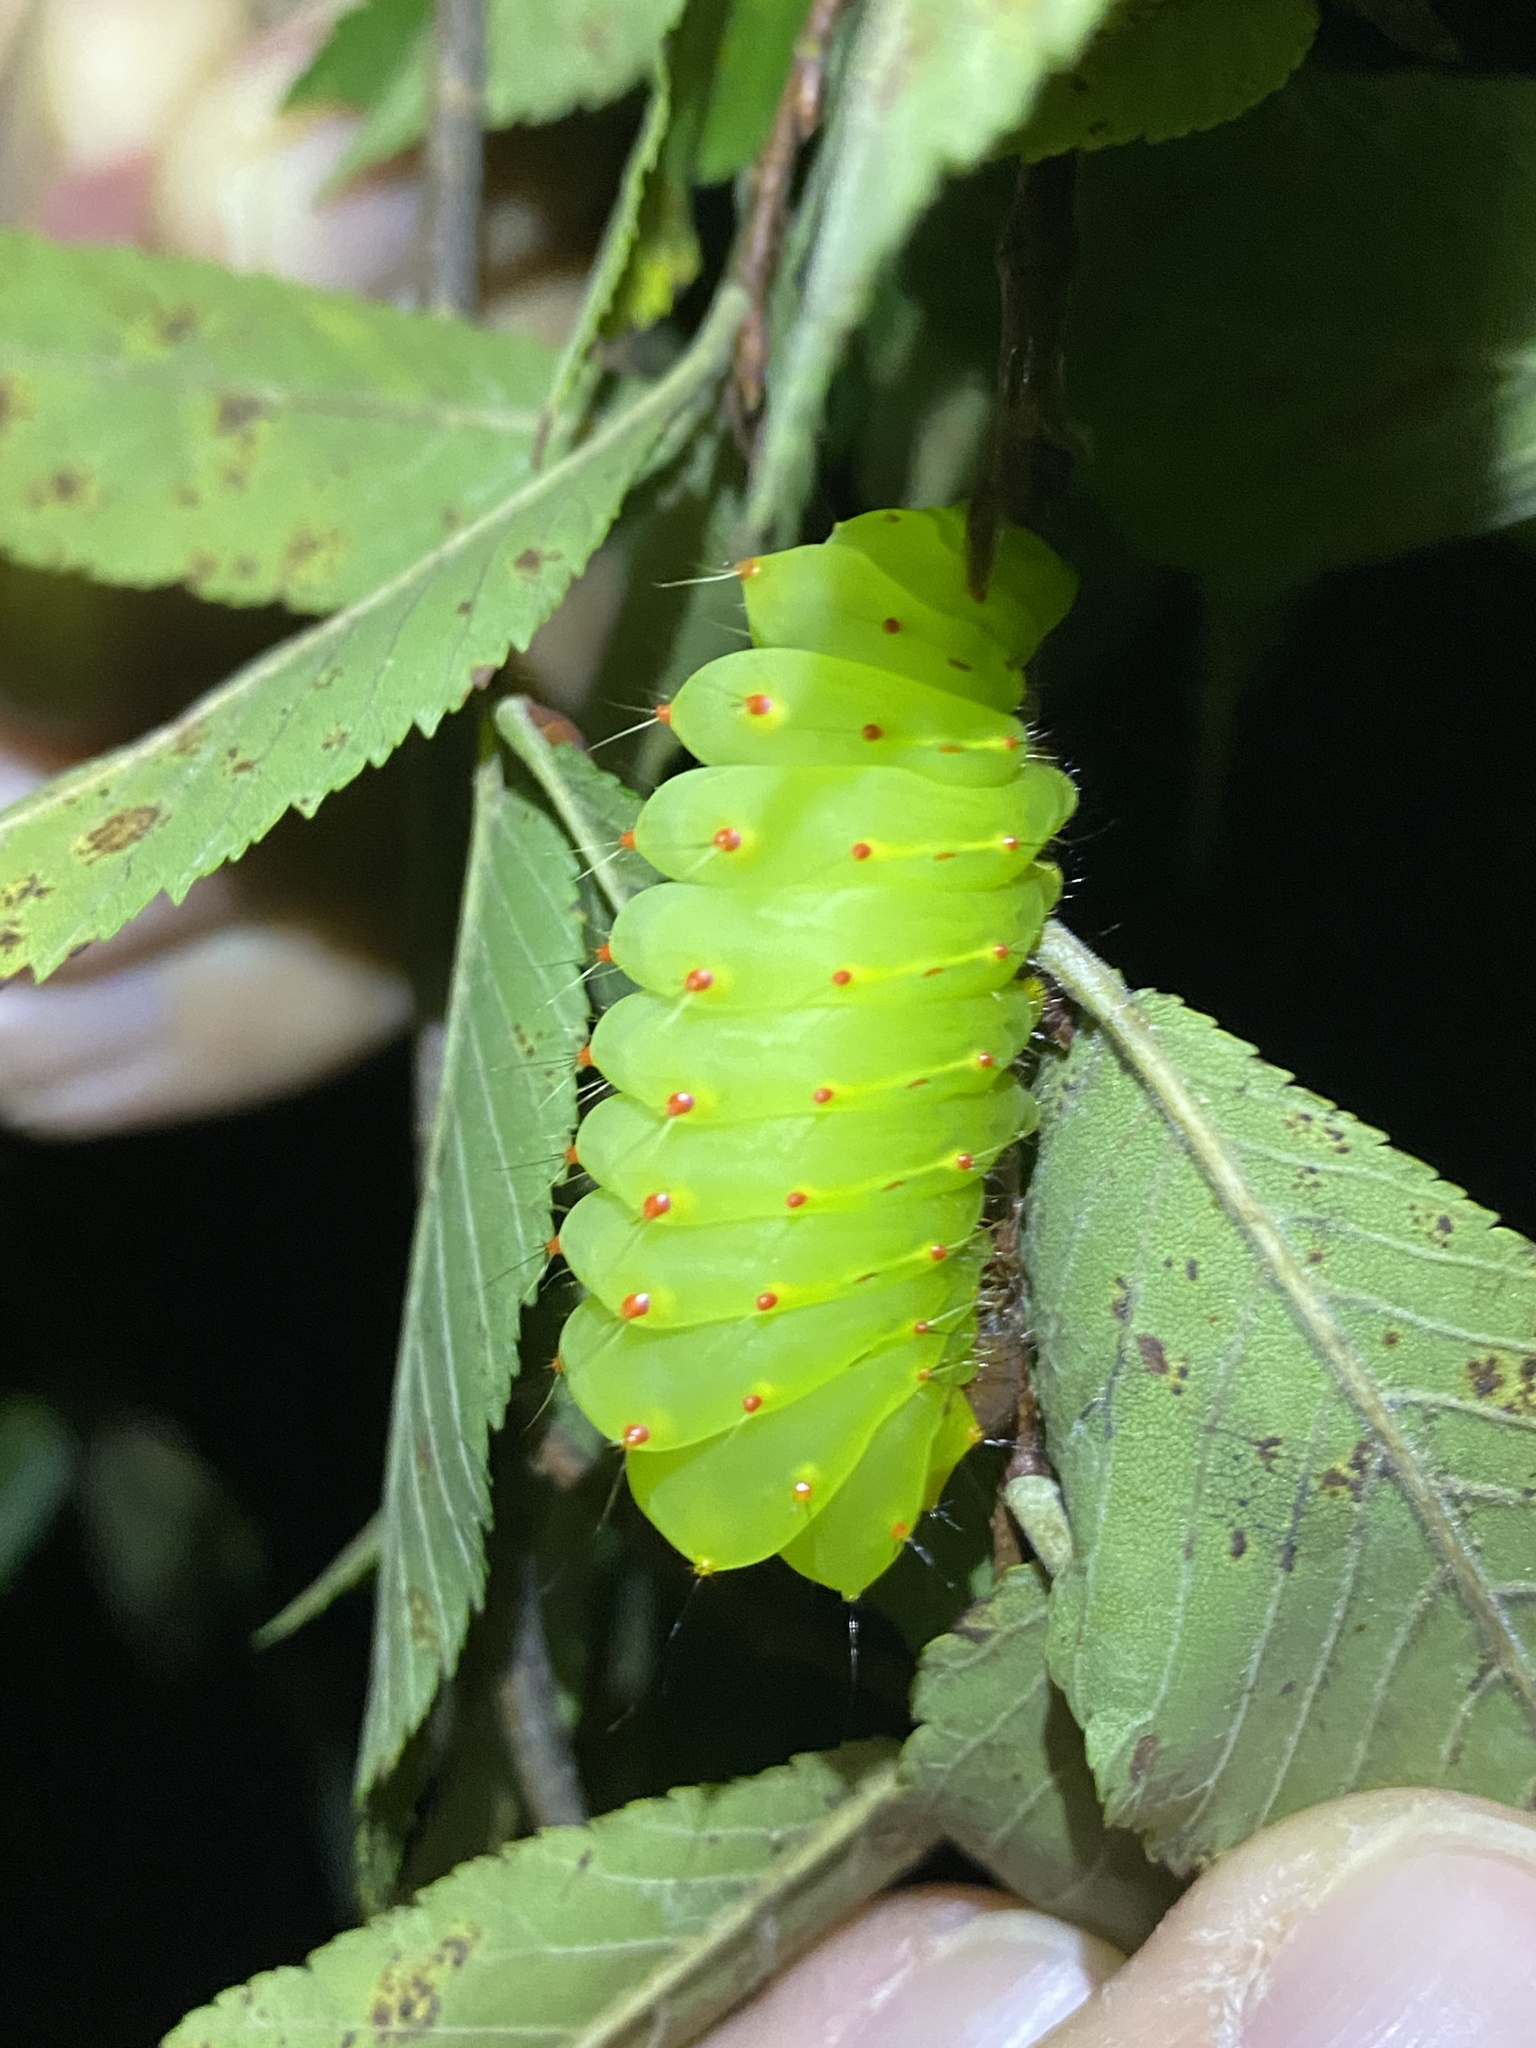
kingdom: Animalia
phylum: Arthropoda
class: Insecta
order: Lepidoptera
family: Saturniidae
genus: Antheraea
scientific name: Antheraea polyphemus
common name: Polyphemus moth
